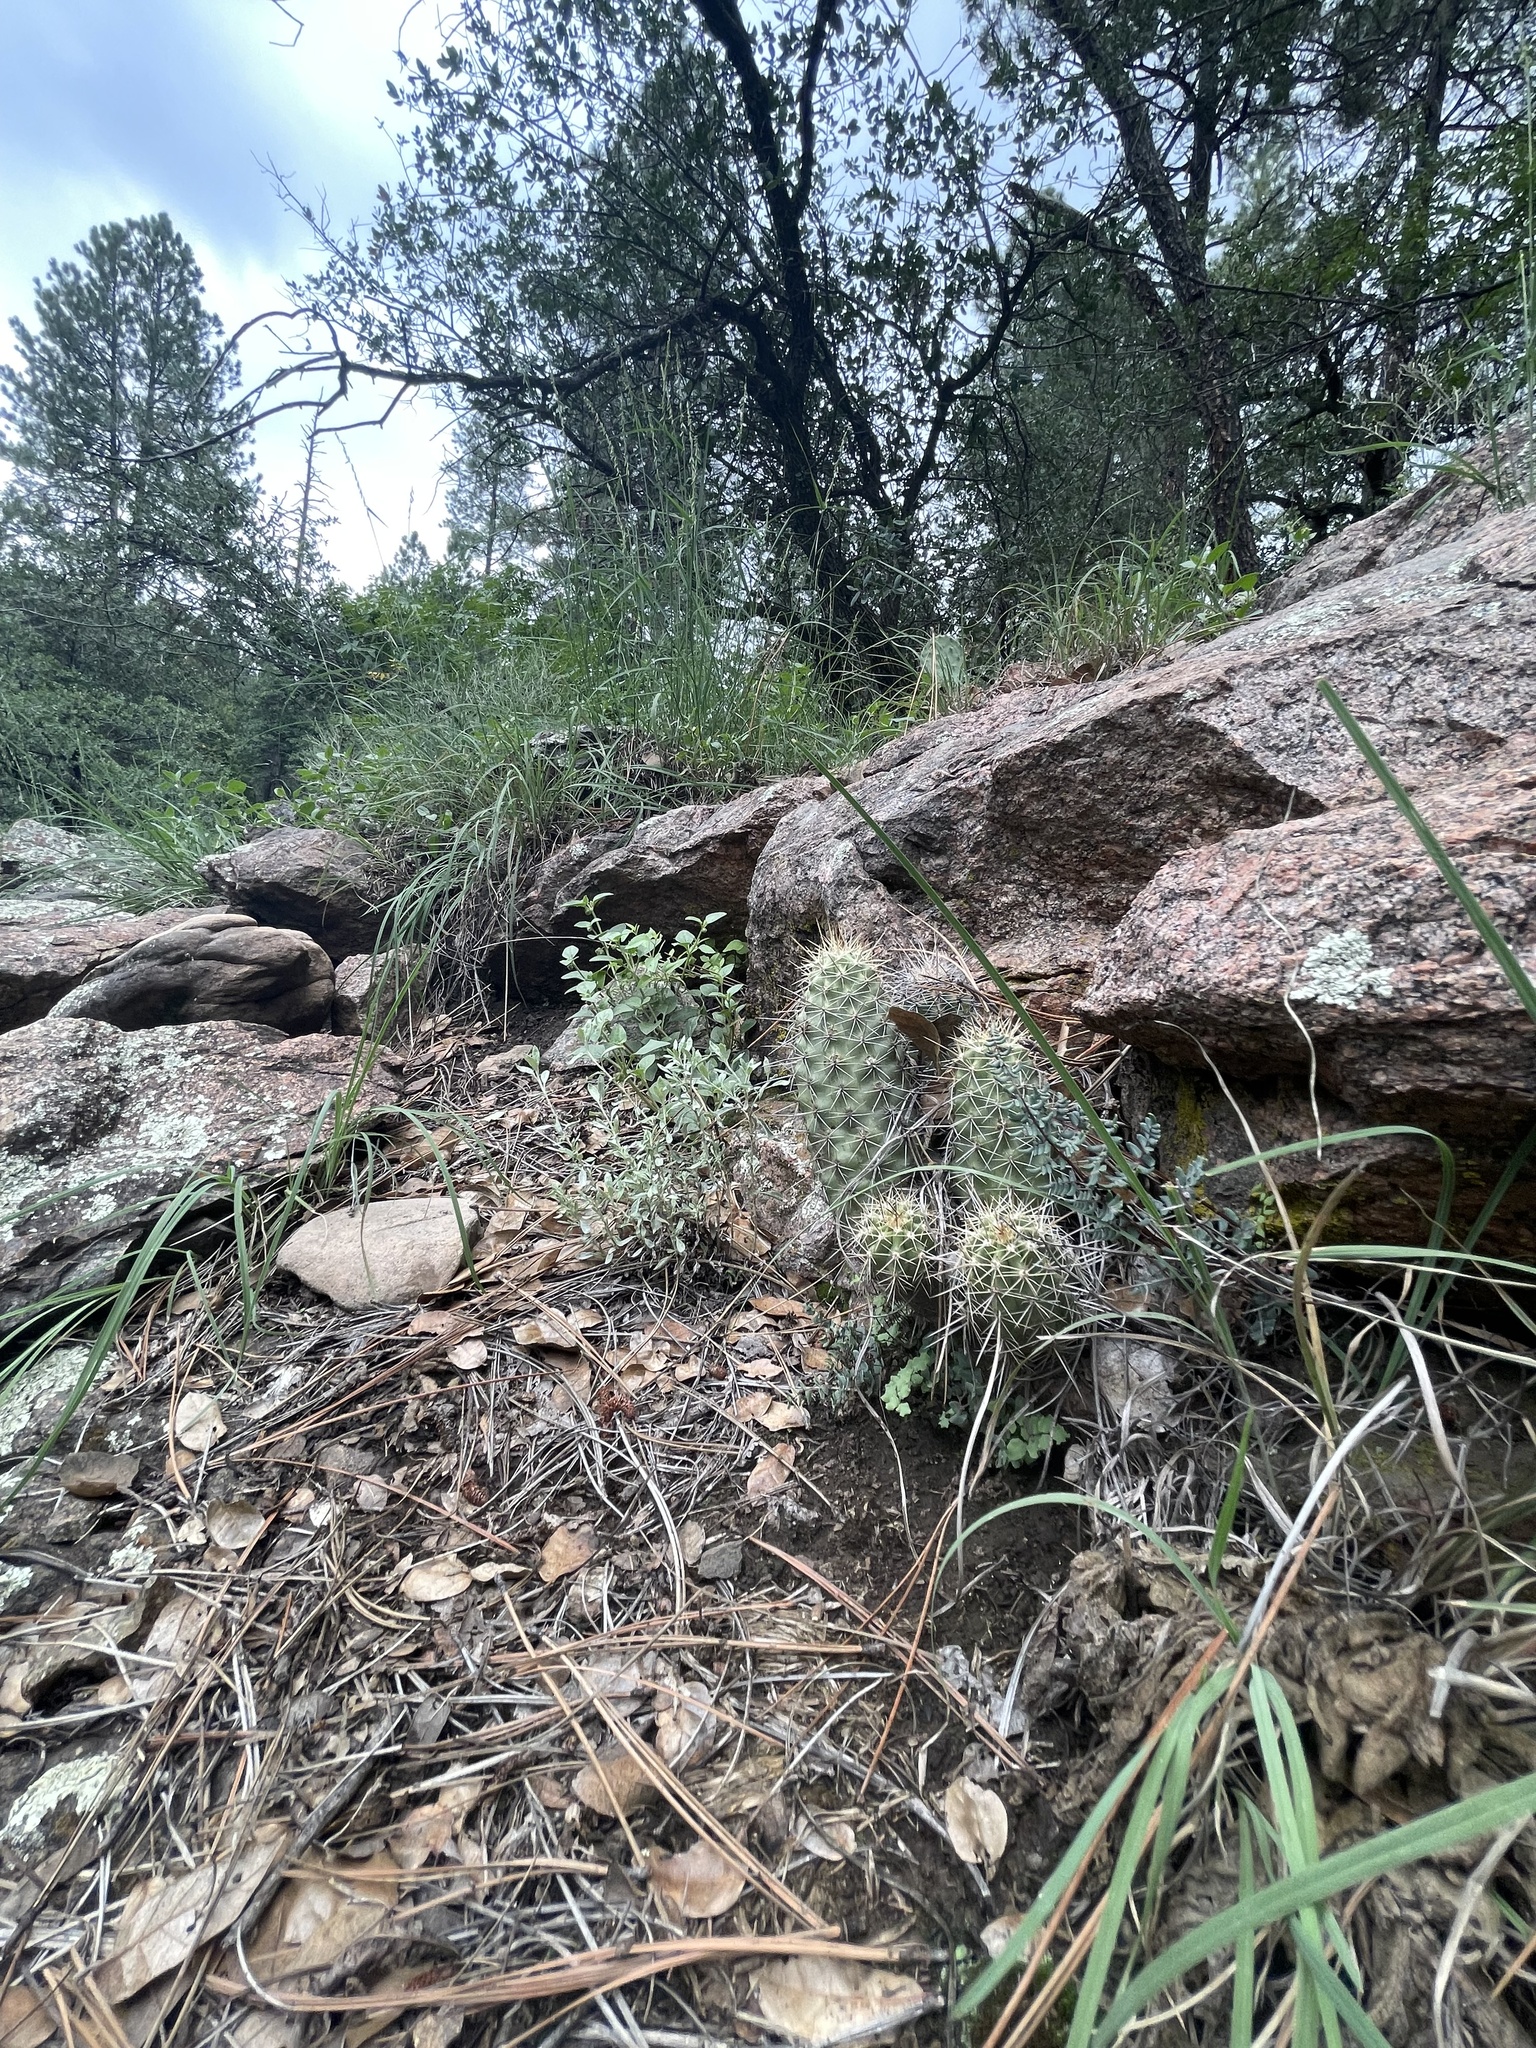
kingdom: Plantae
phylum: Tracheophyta
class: Magnoliopsida
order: Caryophyllales
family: Cactaceae
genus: Echinocereus
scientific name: Echinocereus bakeri
